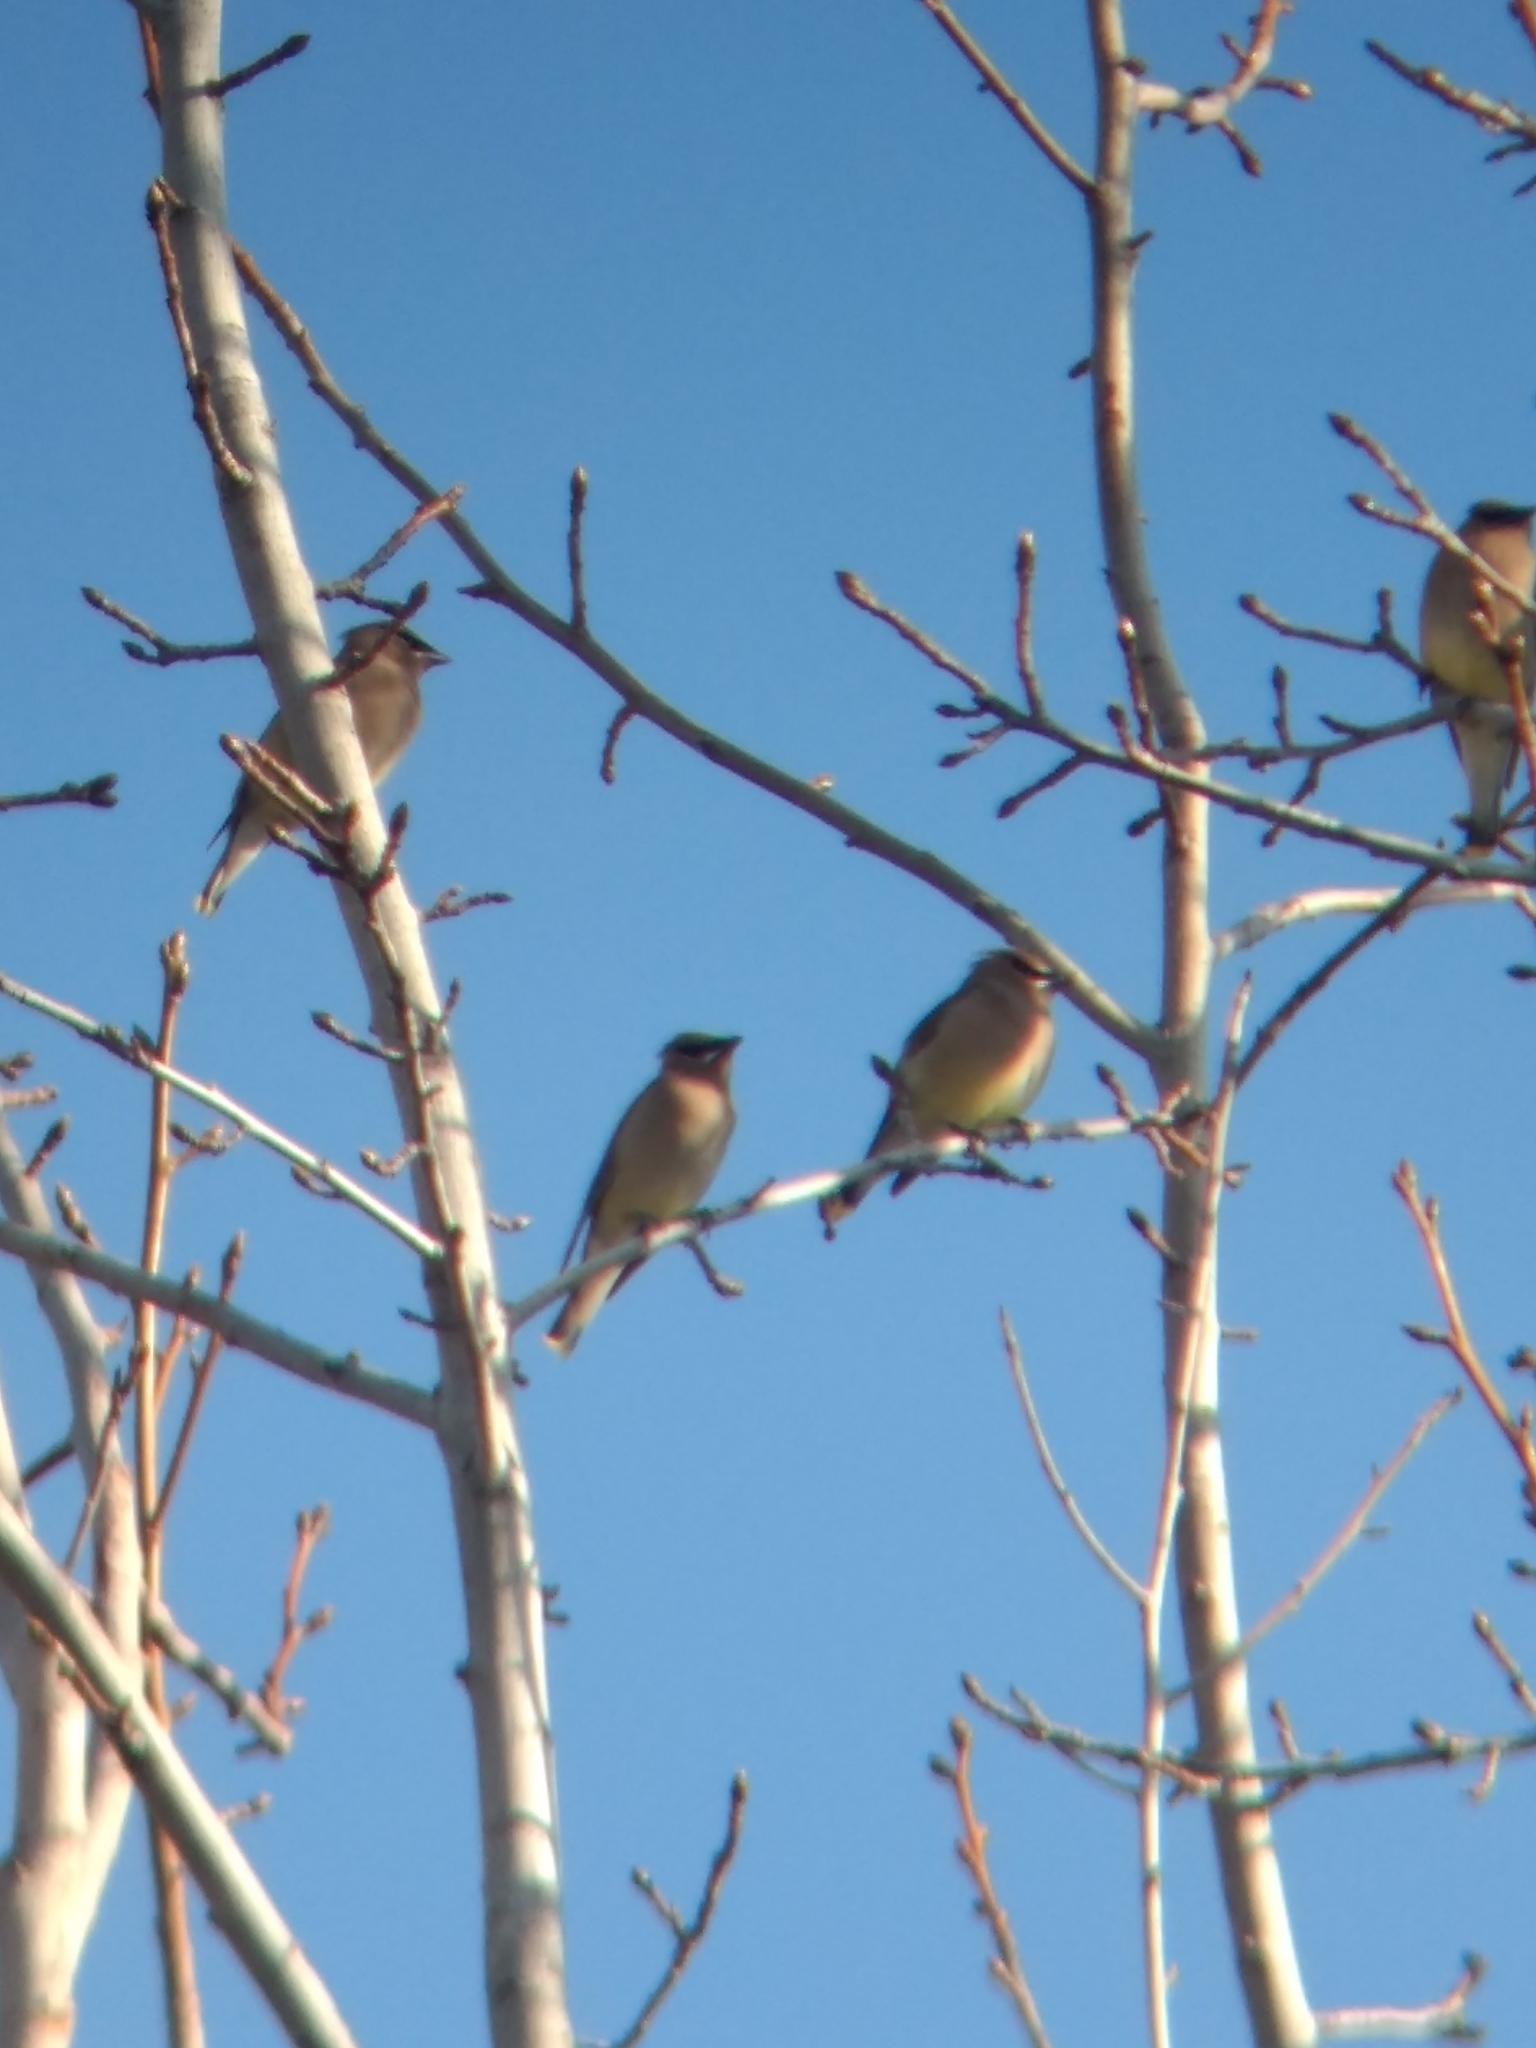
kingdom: Animalia
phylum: Chordata
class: Aves
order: Passeriformes
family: Bombycillidae
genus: Bombycilla
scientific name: Bombycilla cedrorum
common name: Cedar waxwing
